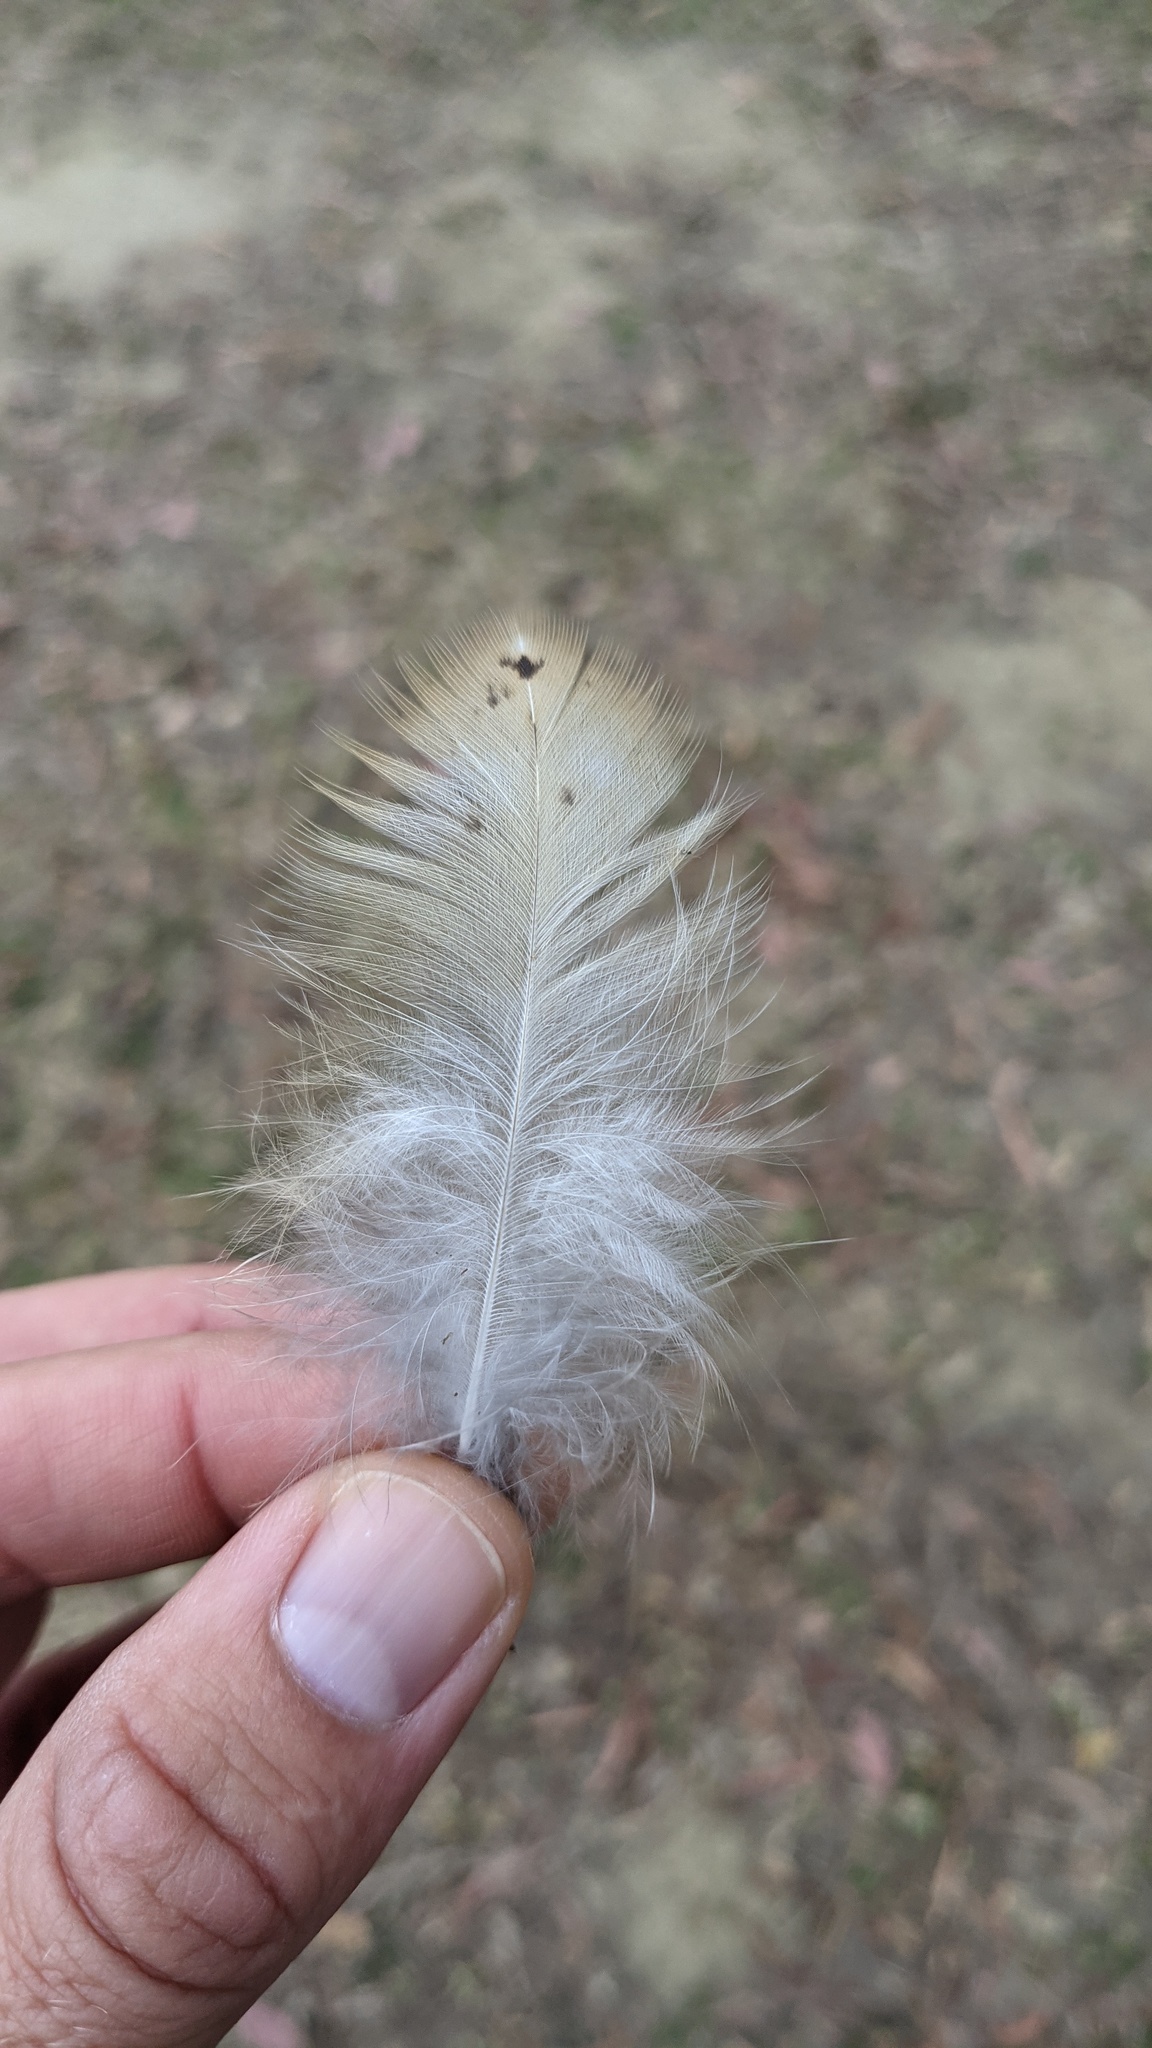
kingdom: Animalia
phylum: Chordata
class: Aves
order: Strigiformes
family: Tytonidae
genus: Tyto
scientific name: Tyto alba
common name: Barn owl
